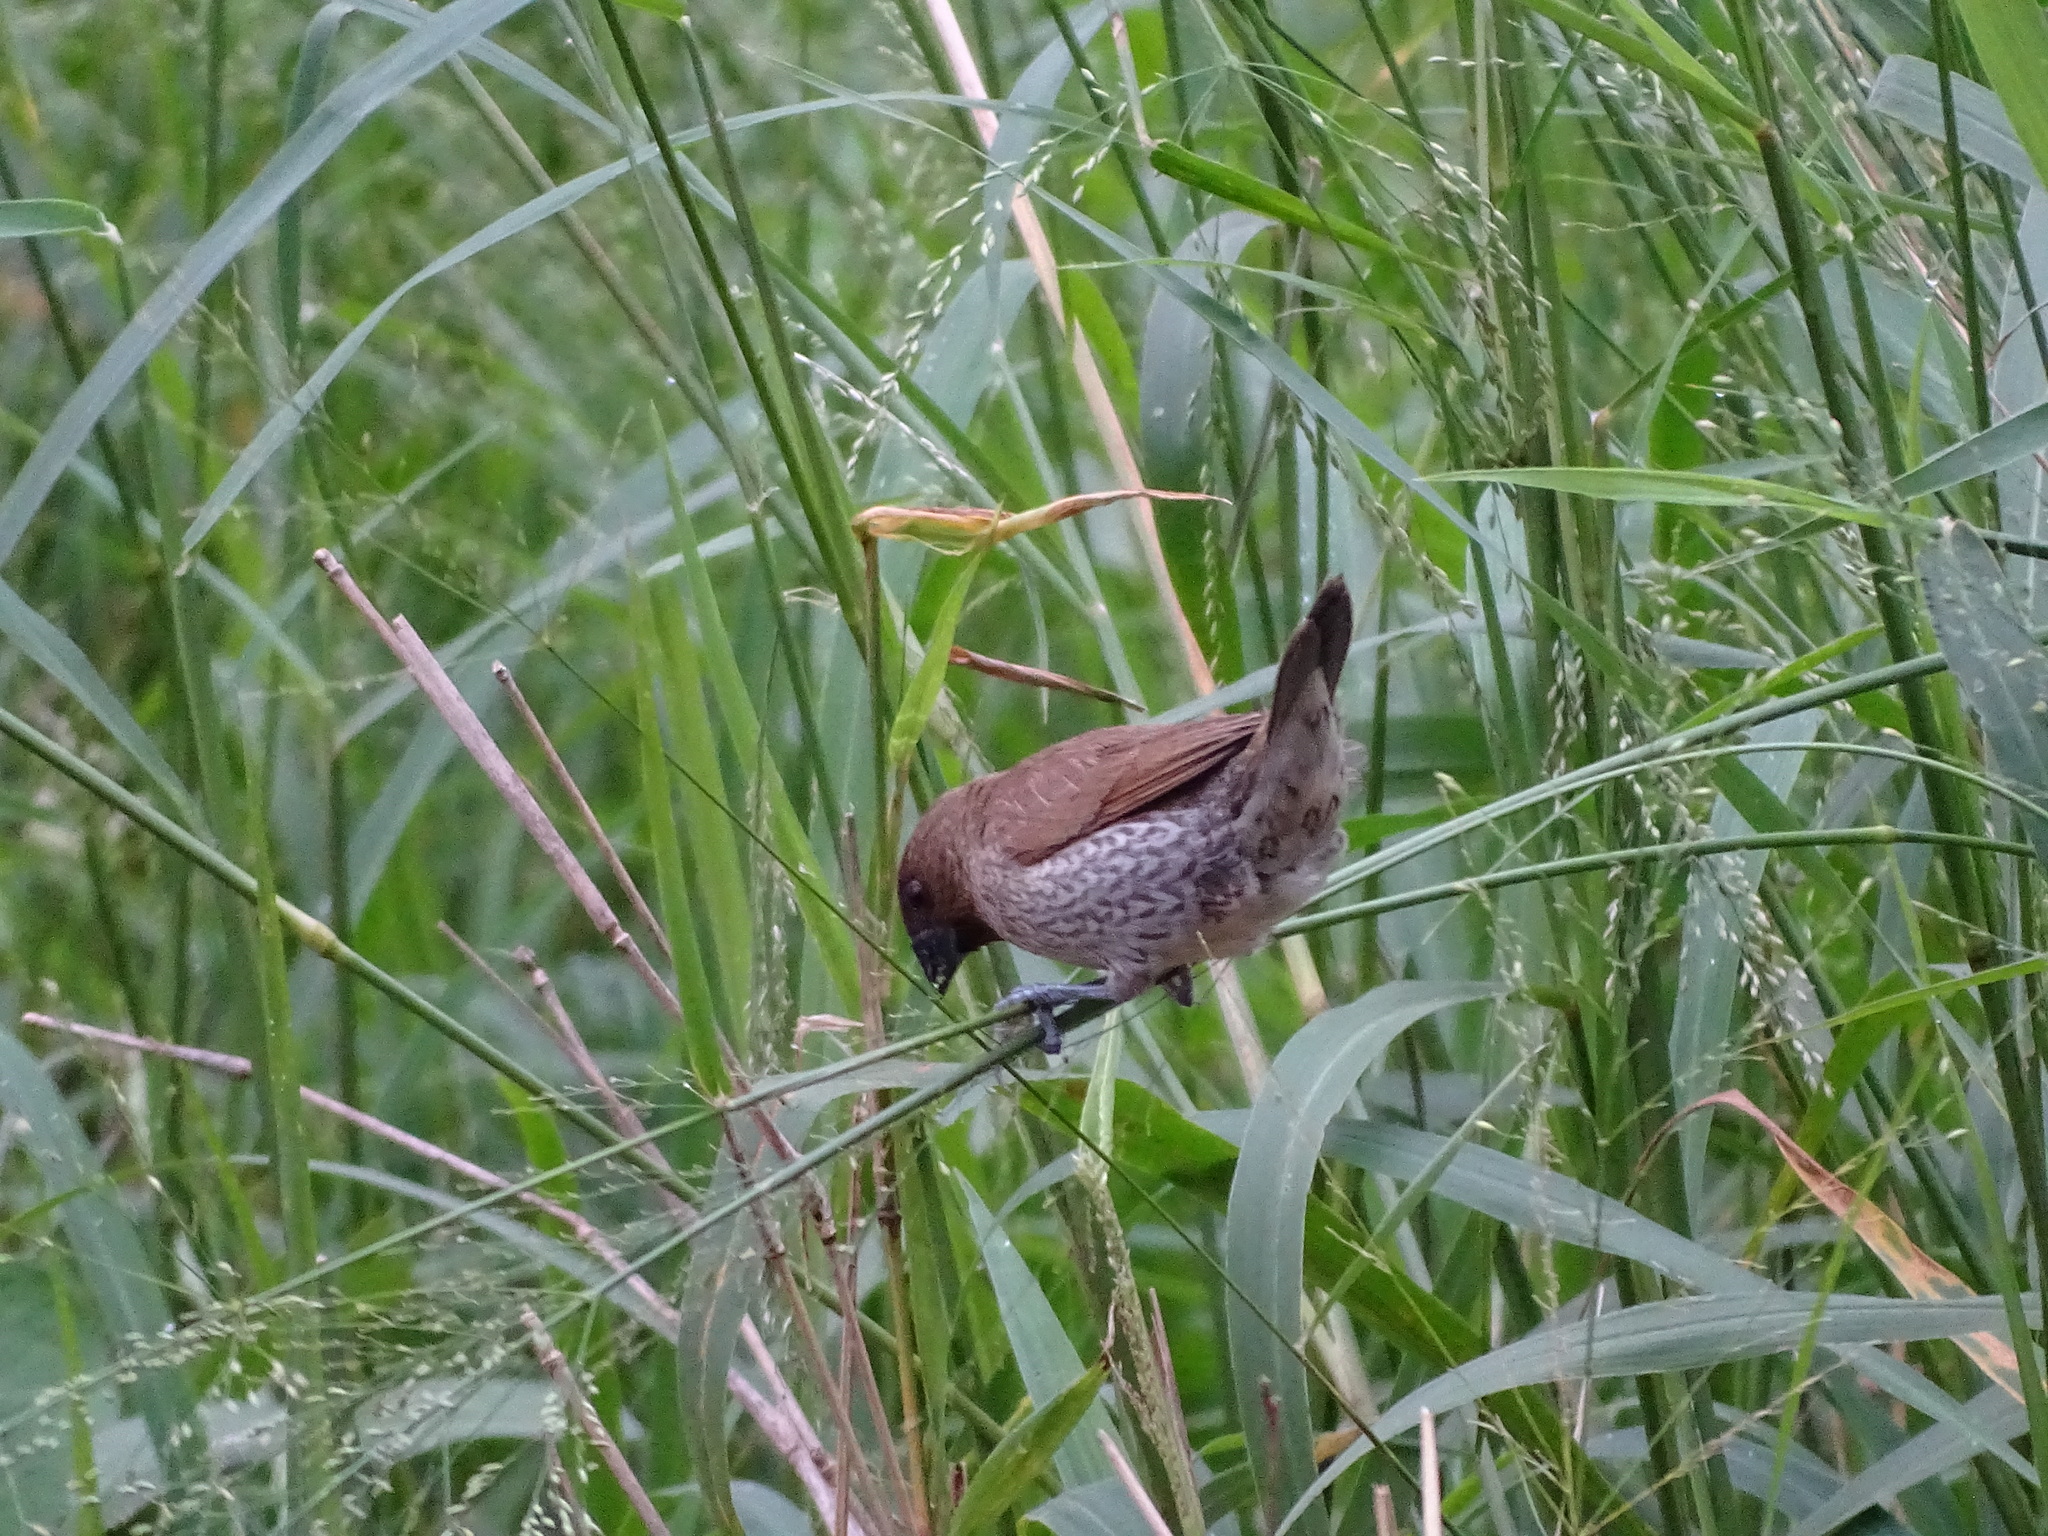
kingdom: Animalia
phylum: Chordata
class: Aves
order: Passeriformes
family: Estrildidae
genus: Lonchura
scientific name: Lonchura punctulata
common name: Scaly-breasted munia
